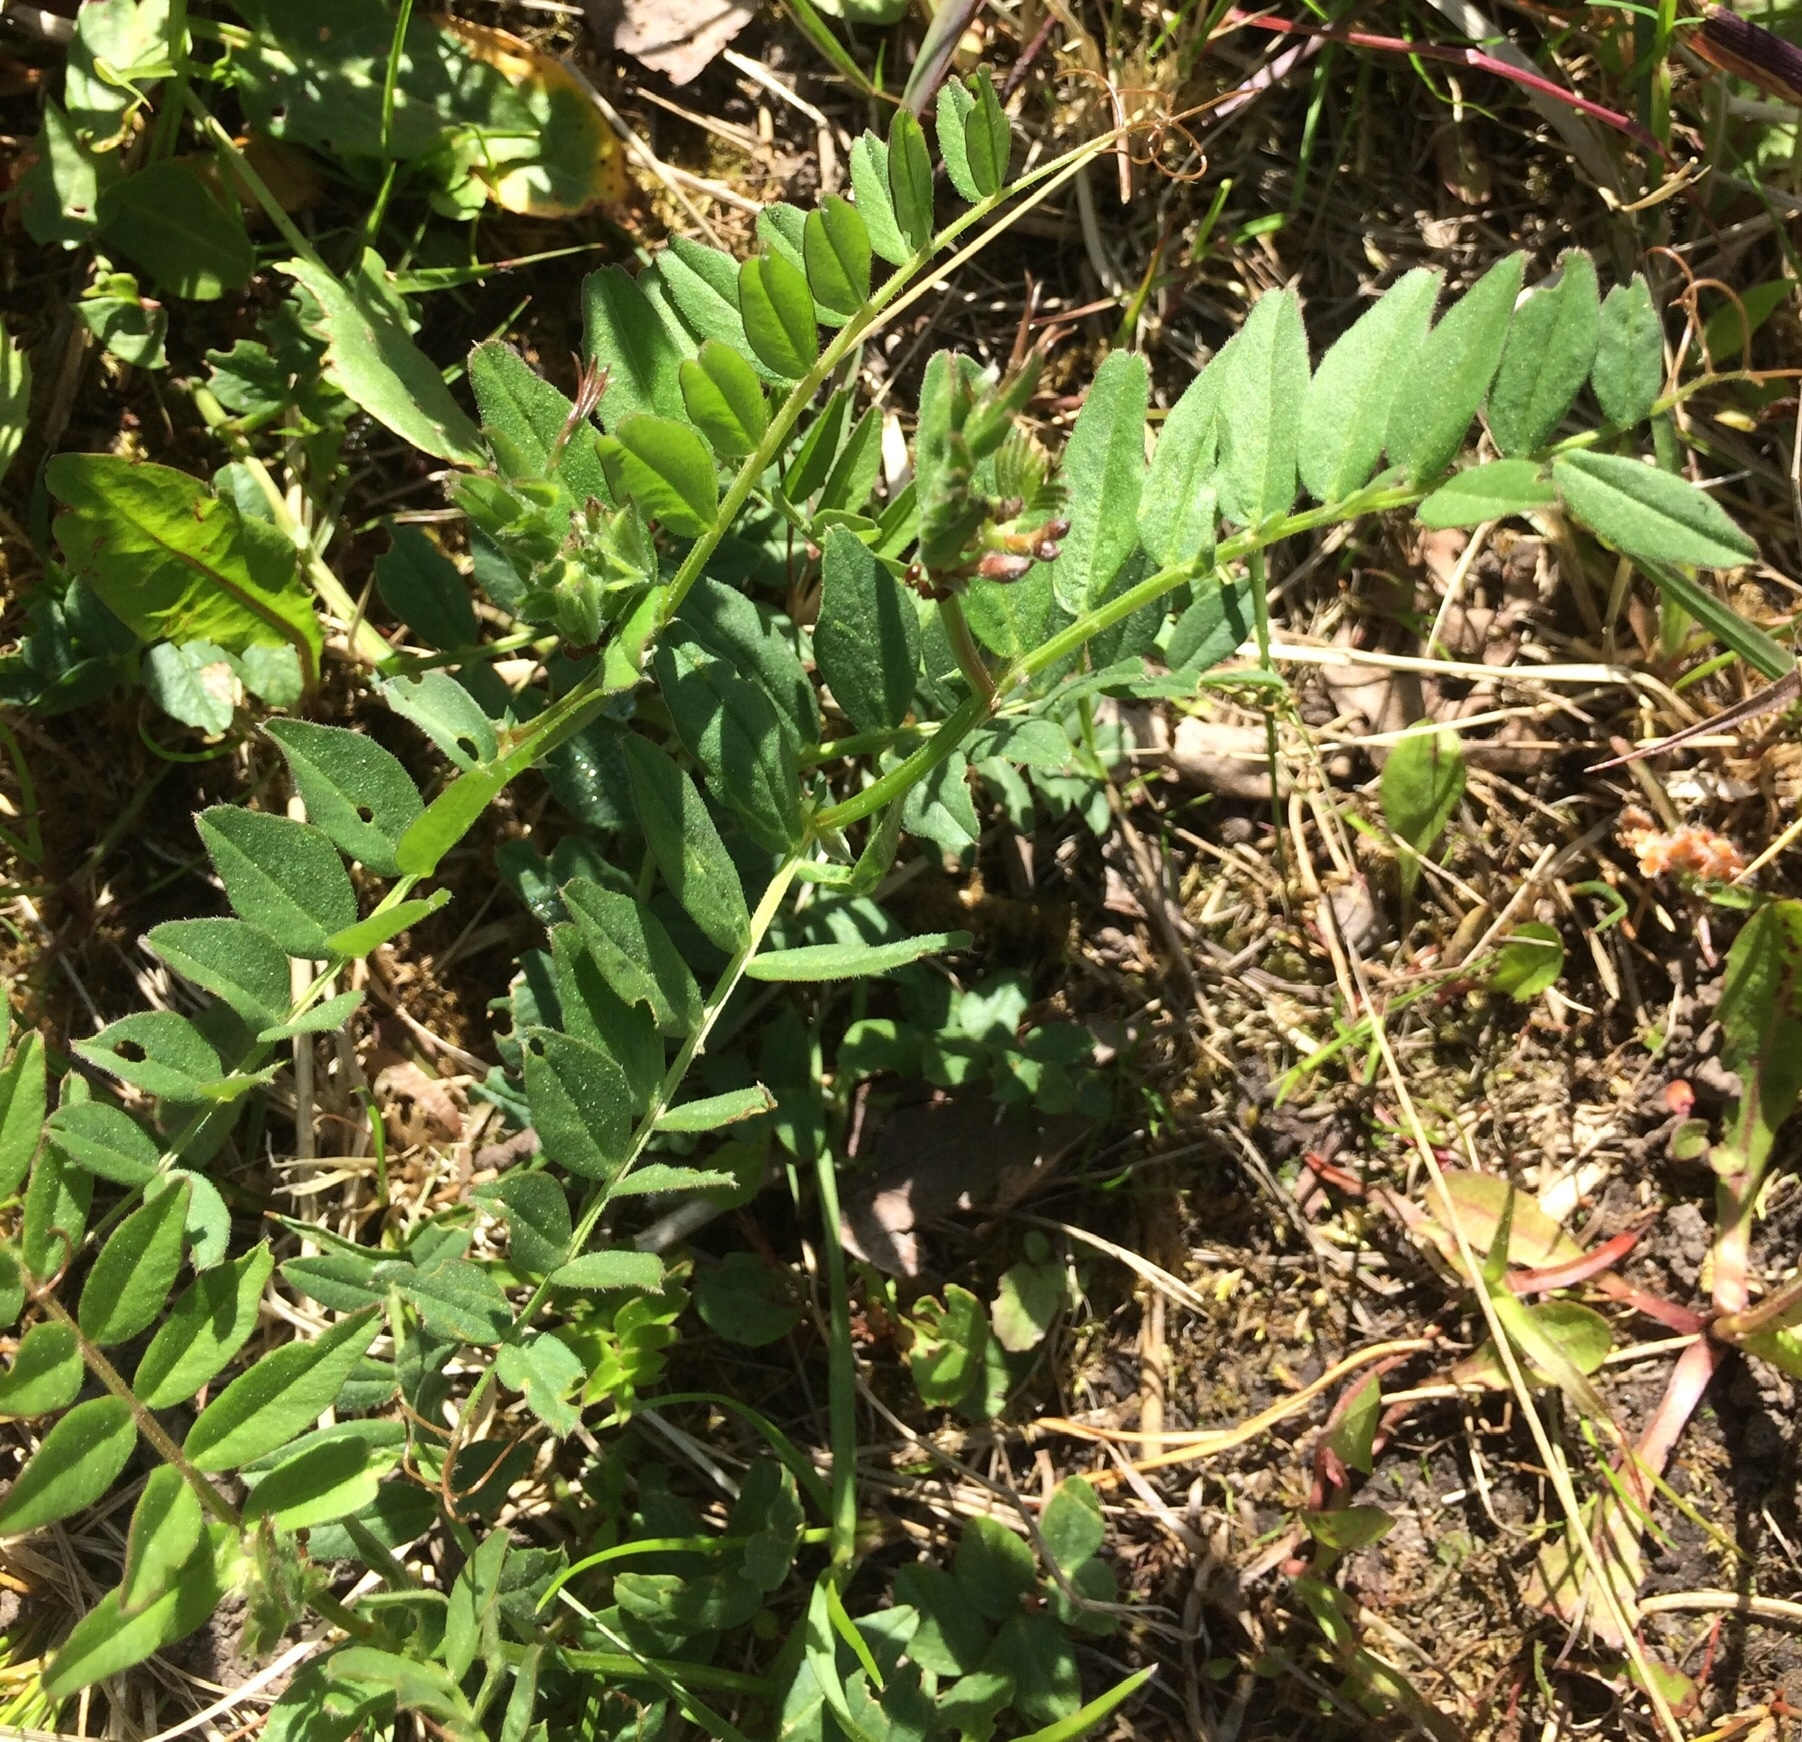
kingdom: Plantae
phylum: Tracheophyta
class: Magnoliopsida
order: Fabales
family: Fabaceae
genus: Vicia
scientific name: Vicia sepium
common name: Bush vetch
